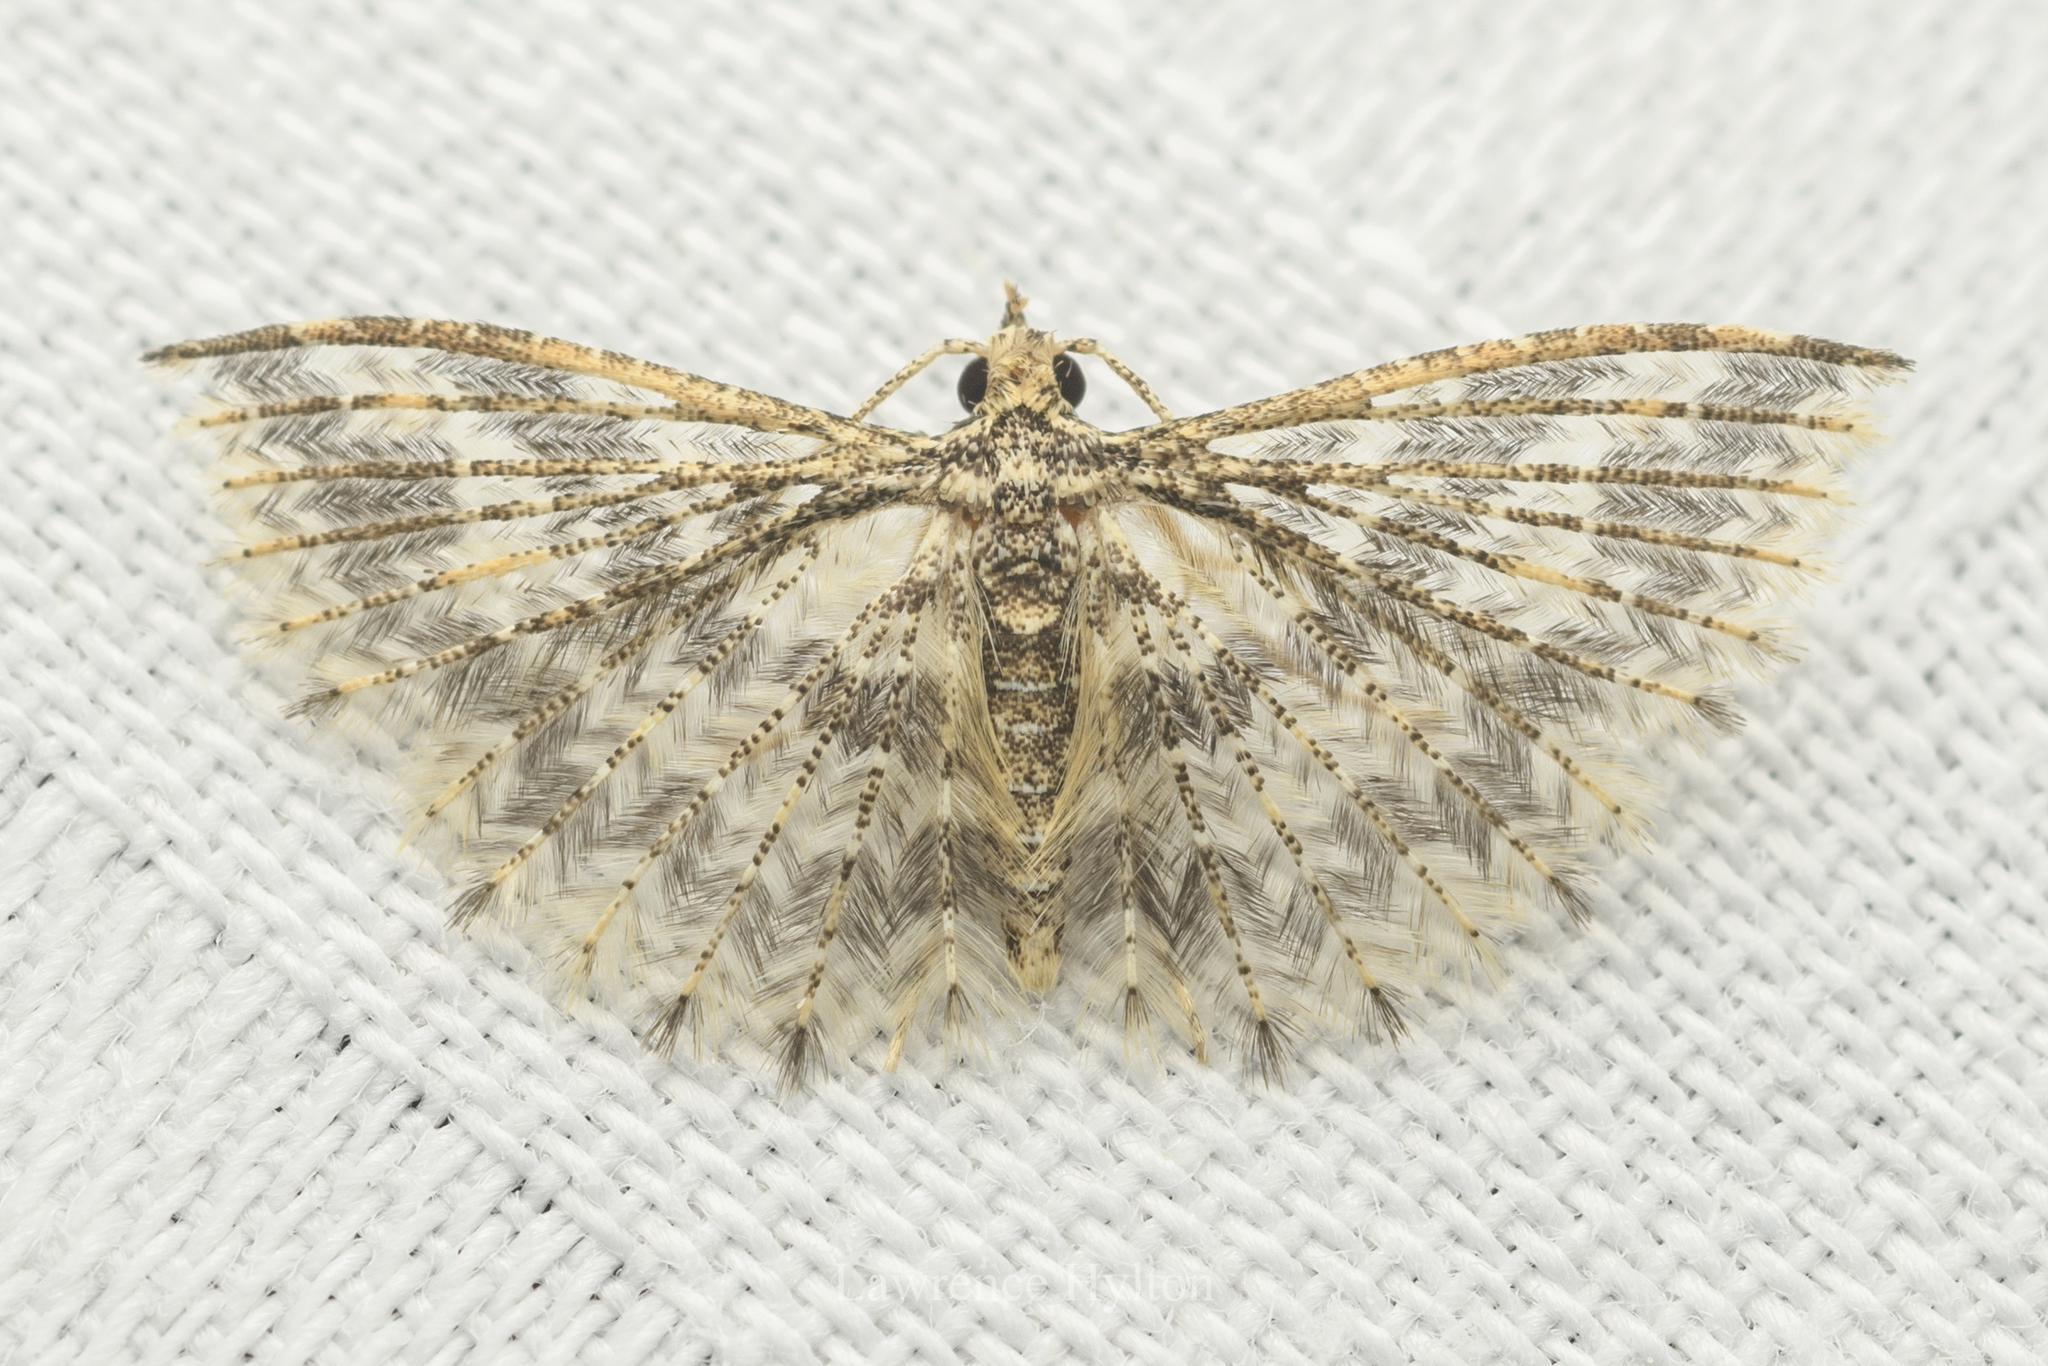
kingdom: Animalia
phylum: Arthropoda
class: Insecta
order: Lepidoptera
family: Alucitidae
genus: Pterotopteryx
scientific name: Pterotopteryx spilodesma
